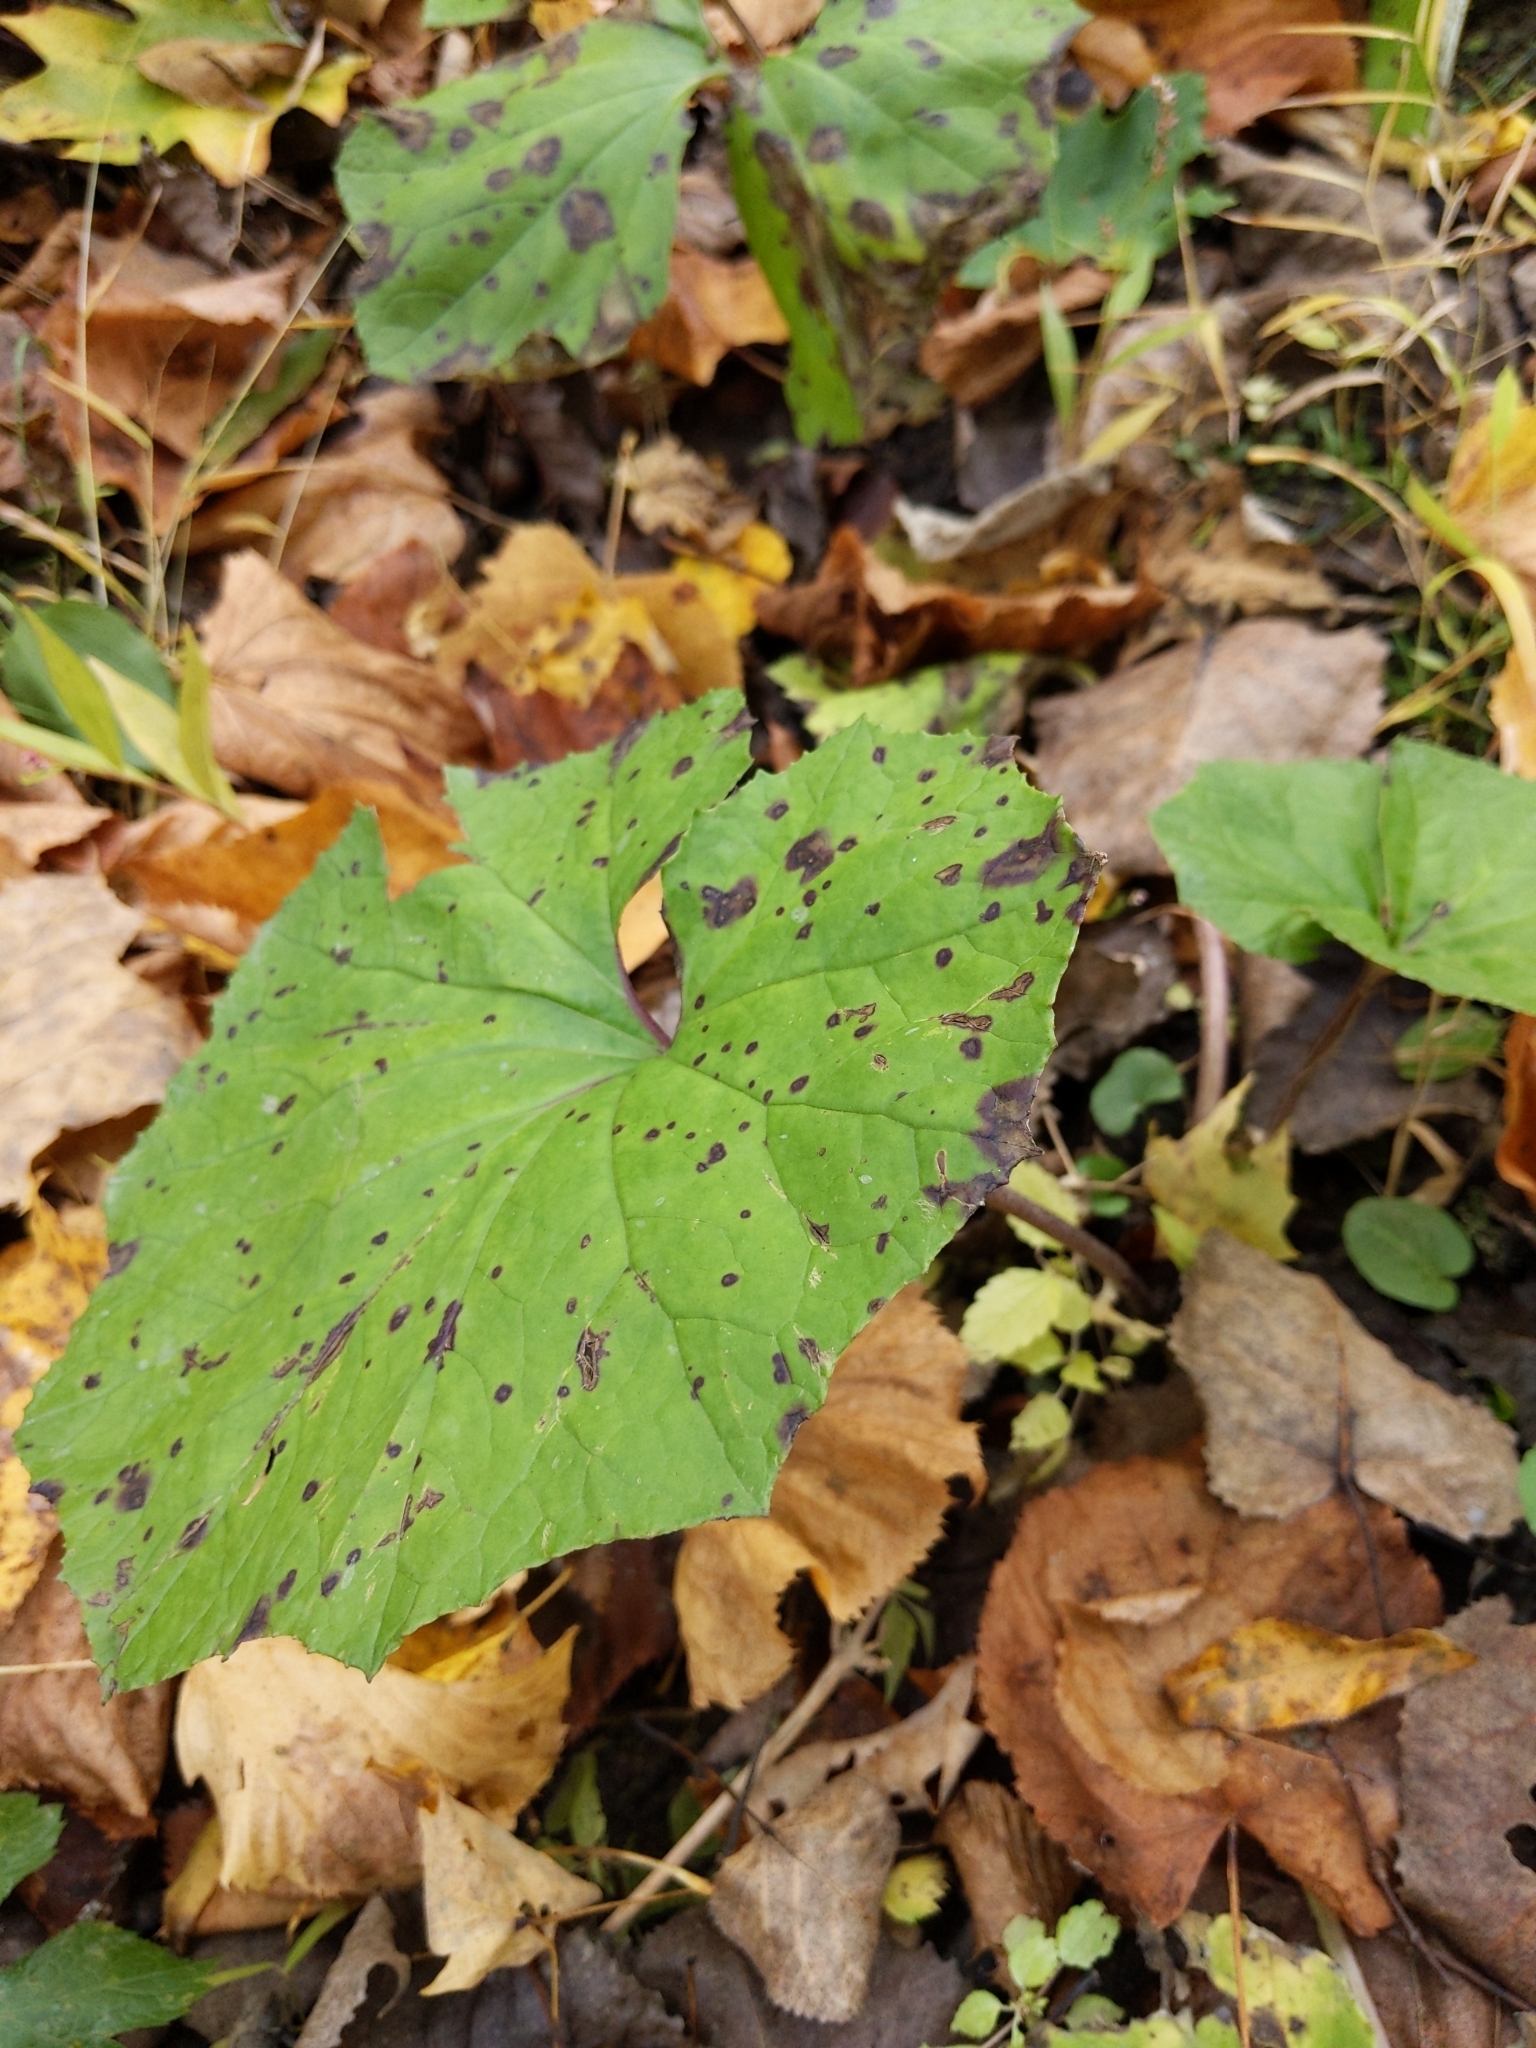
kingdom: Plantae
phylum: Tracheophyta
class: Magnoliopsida
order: Asterales
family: Asteraceae
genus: Tussilago
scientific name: Tussilago farfara
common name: Coltsfoot
